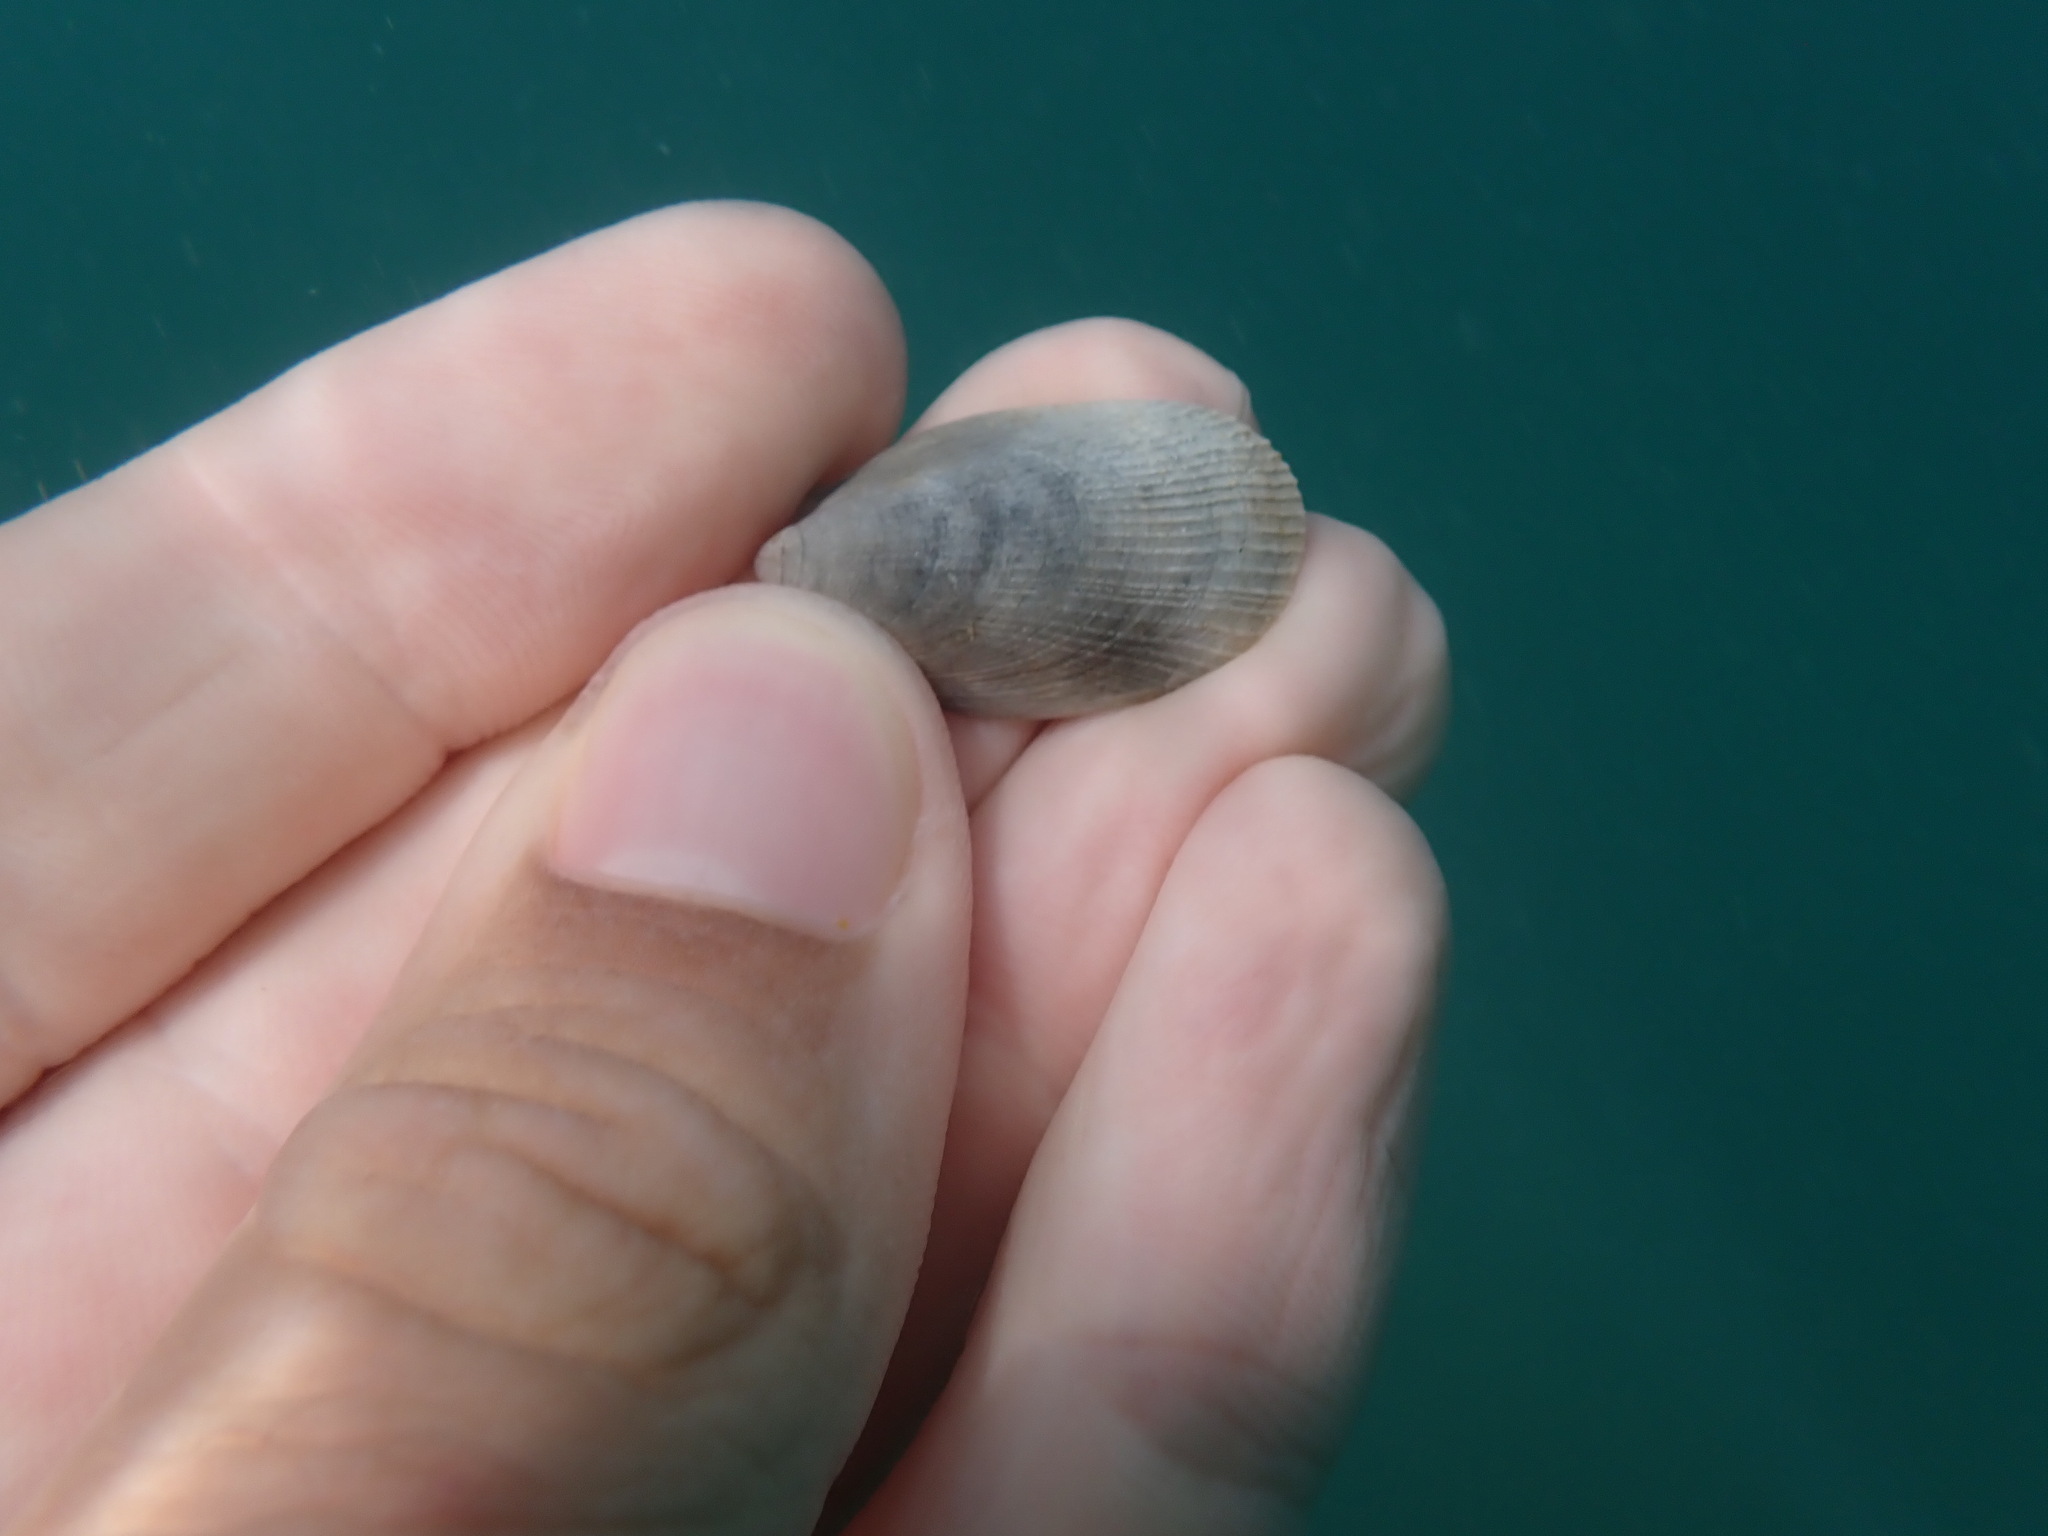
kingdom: Animalia
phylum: Mollusca
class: Bivalvia
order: Limida
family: Limidae
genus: Limatula
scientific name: Limatula maoria
